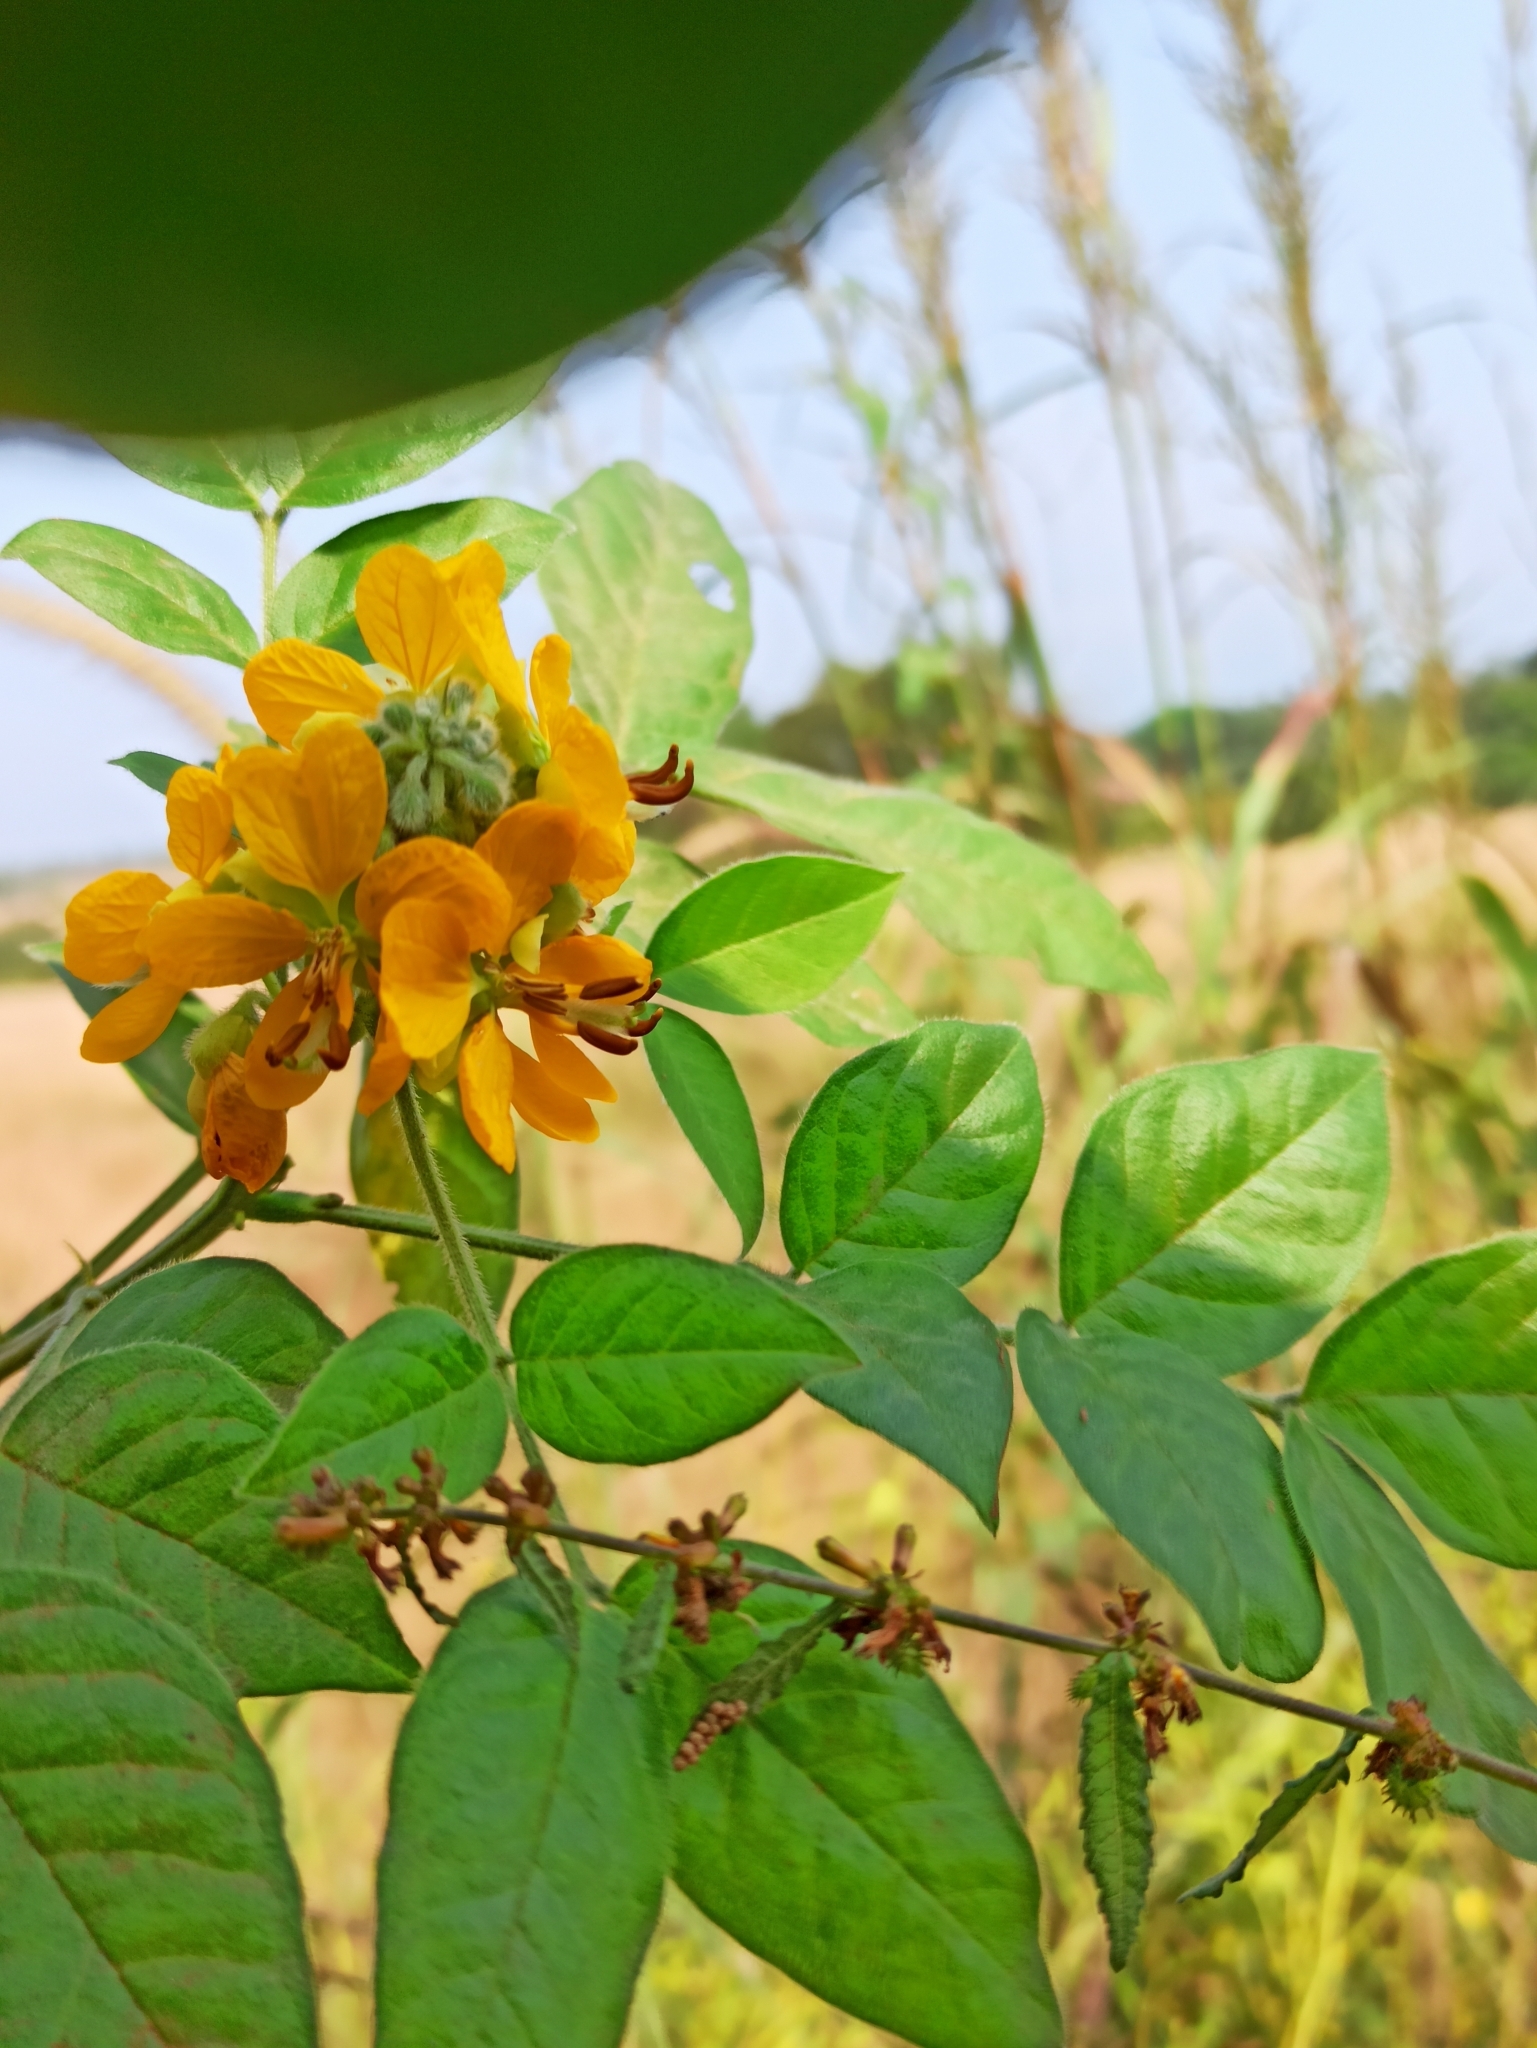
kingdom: Plantae
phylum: Tracheophyta
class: Magnoliopsida
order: Fabales
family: Fabaceae
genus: Senna
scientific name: Senna hirsuta
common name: Woolly senna
